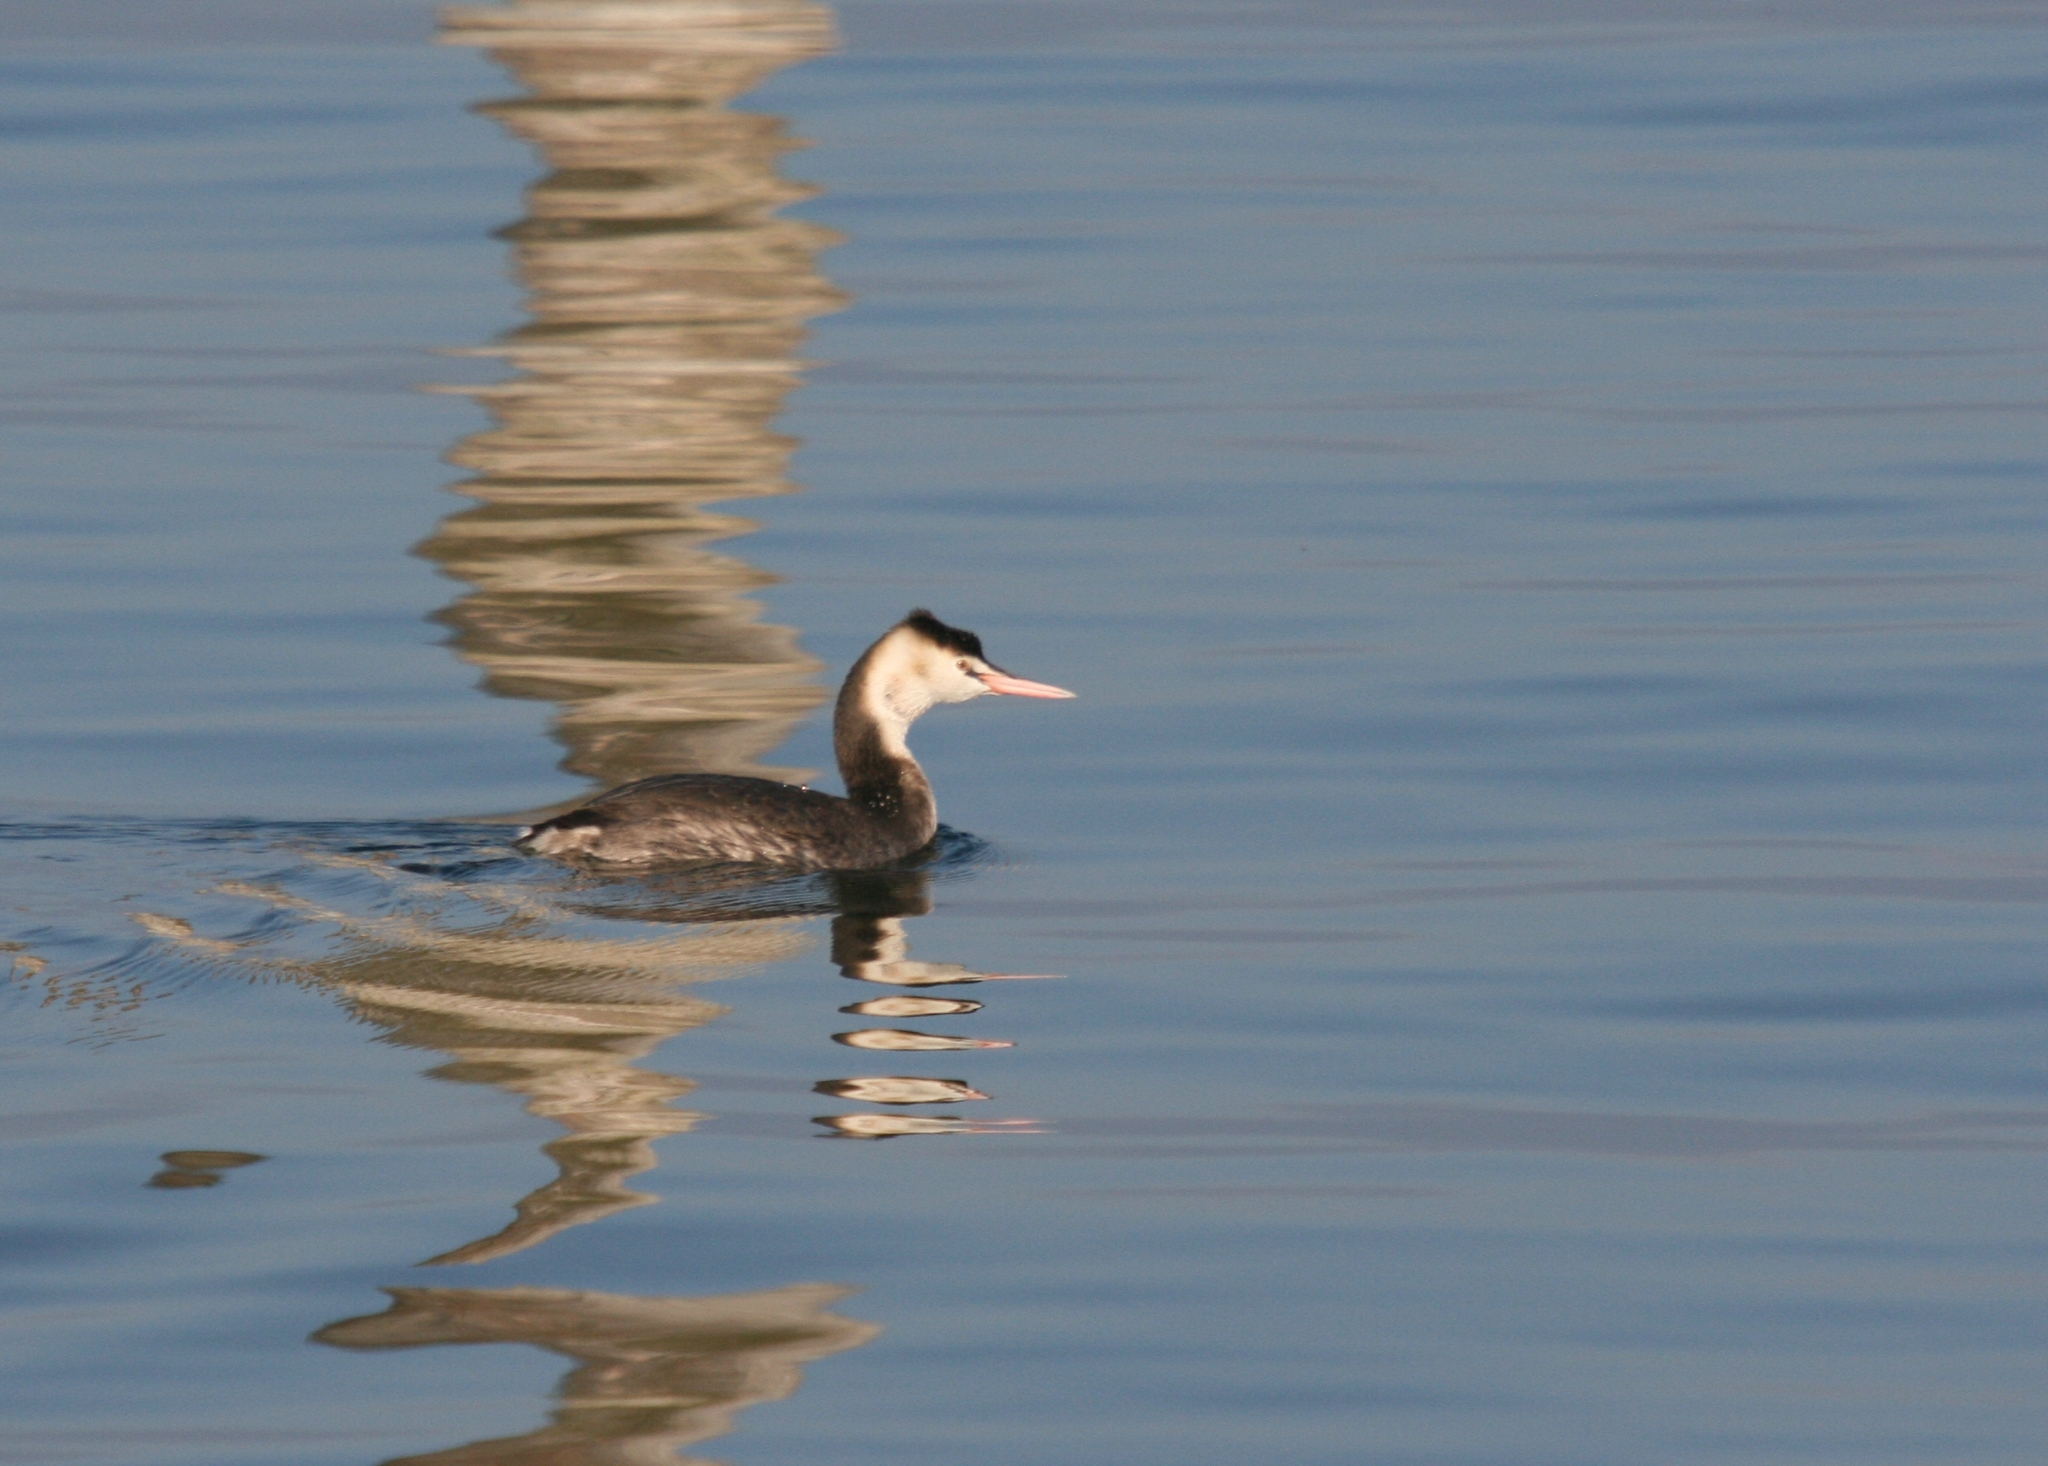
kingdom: Animalia
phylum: Chordata
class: Aves
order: Podicipediformes
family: Podicipedidae
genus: Podiceps
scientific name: Podiceps cristatus
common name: Great crested grebe
